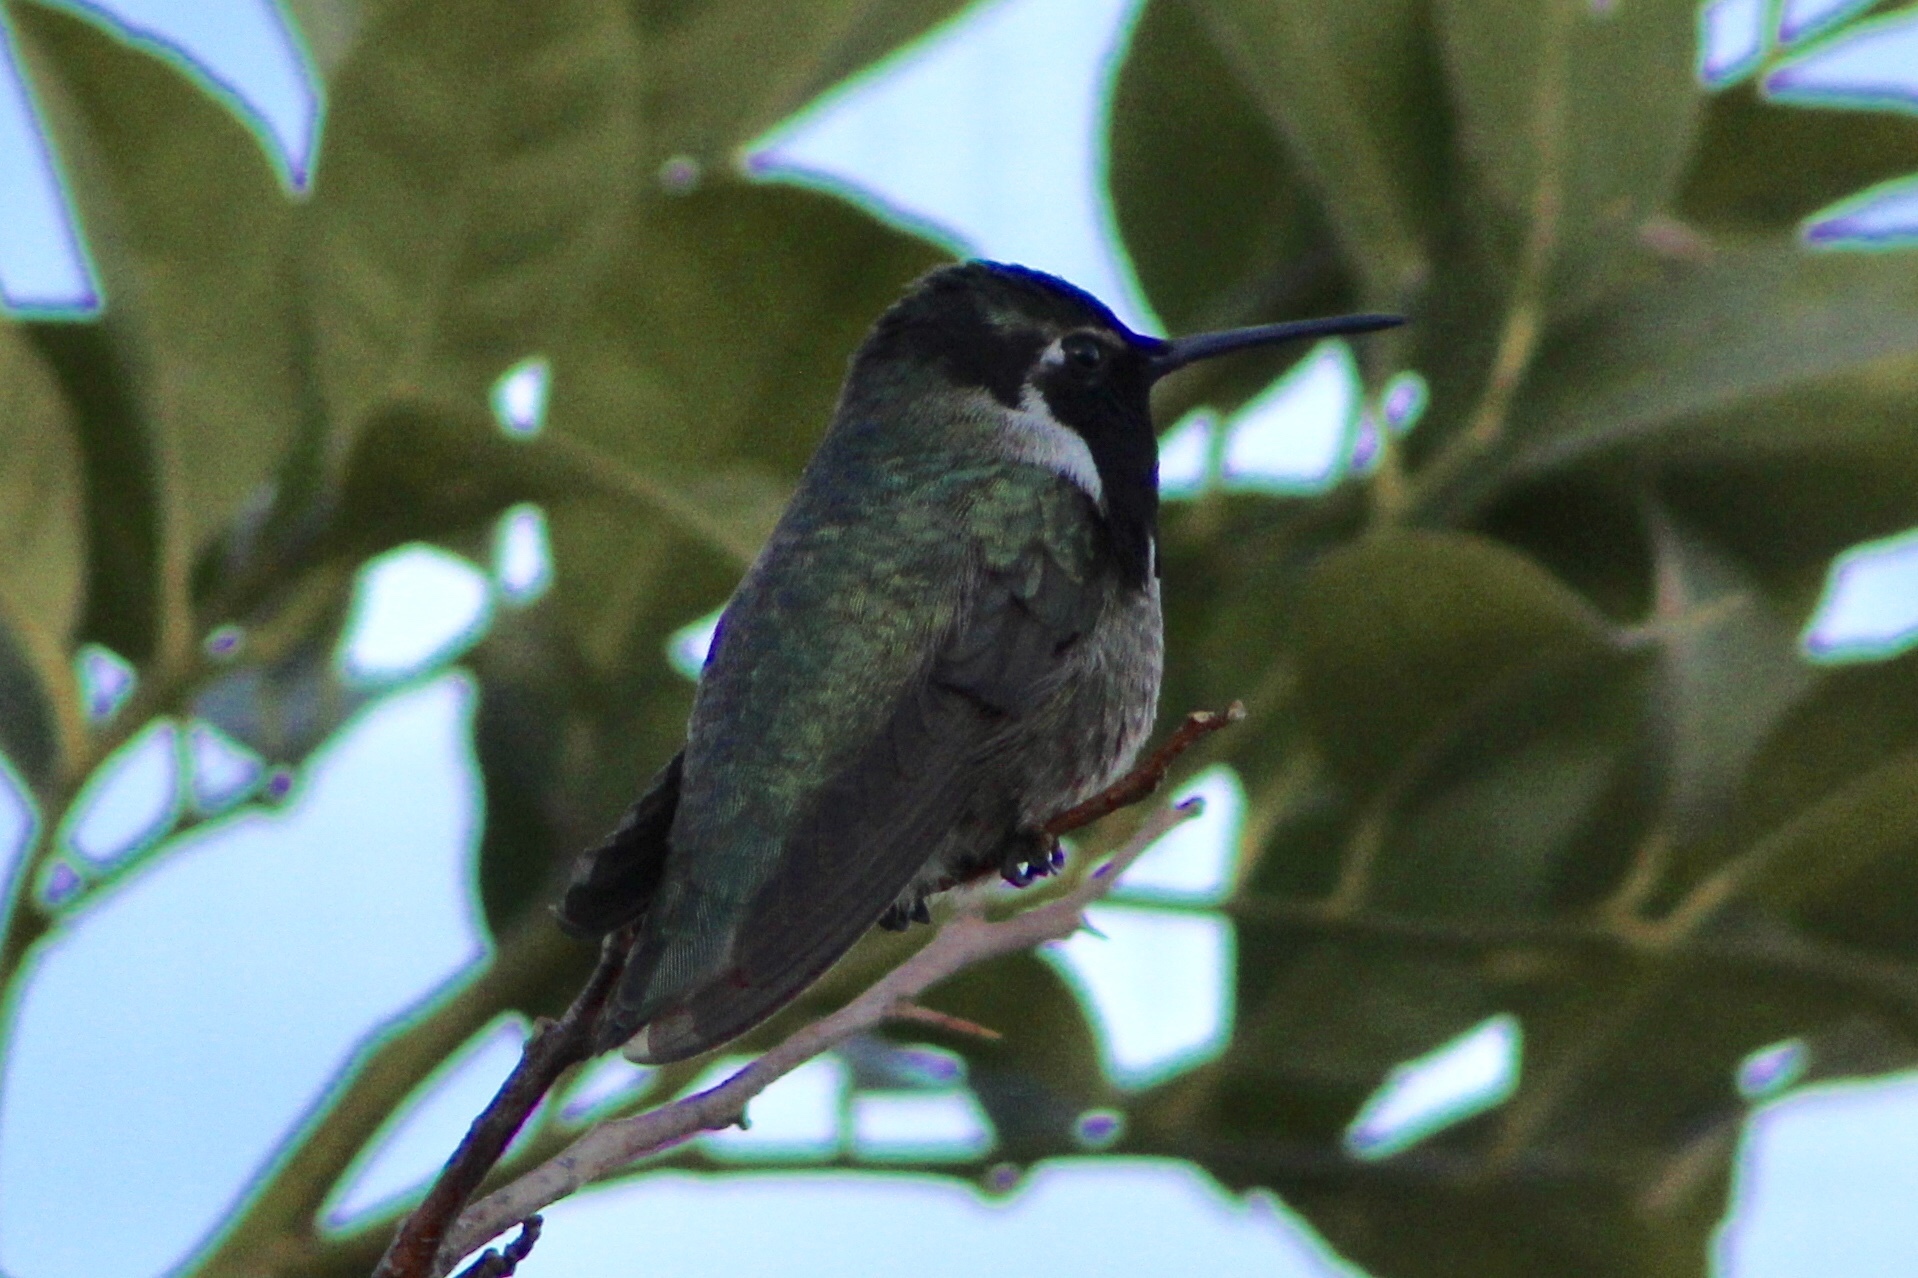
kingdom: Animalia
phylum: Chordata
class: Aves
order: Apodiformes
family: Trochilidae
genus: Calypte
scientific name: Calypte costae
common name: Costa's hummingbird
